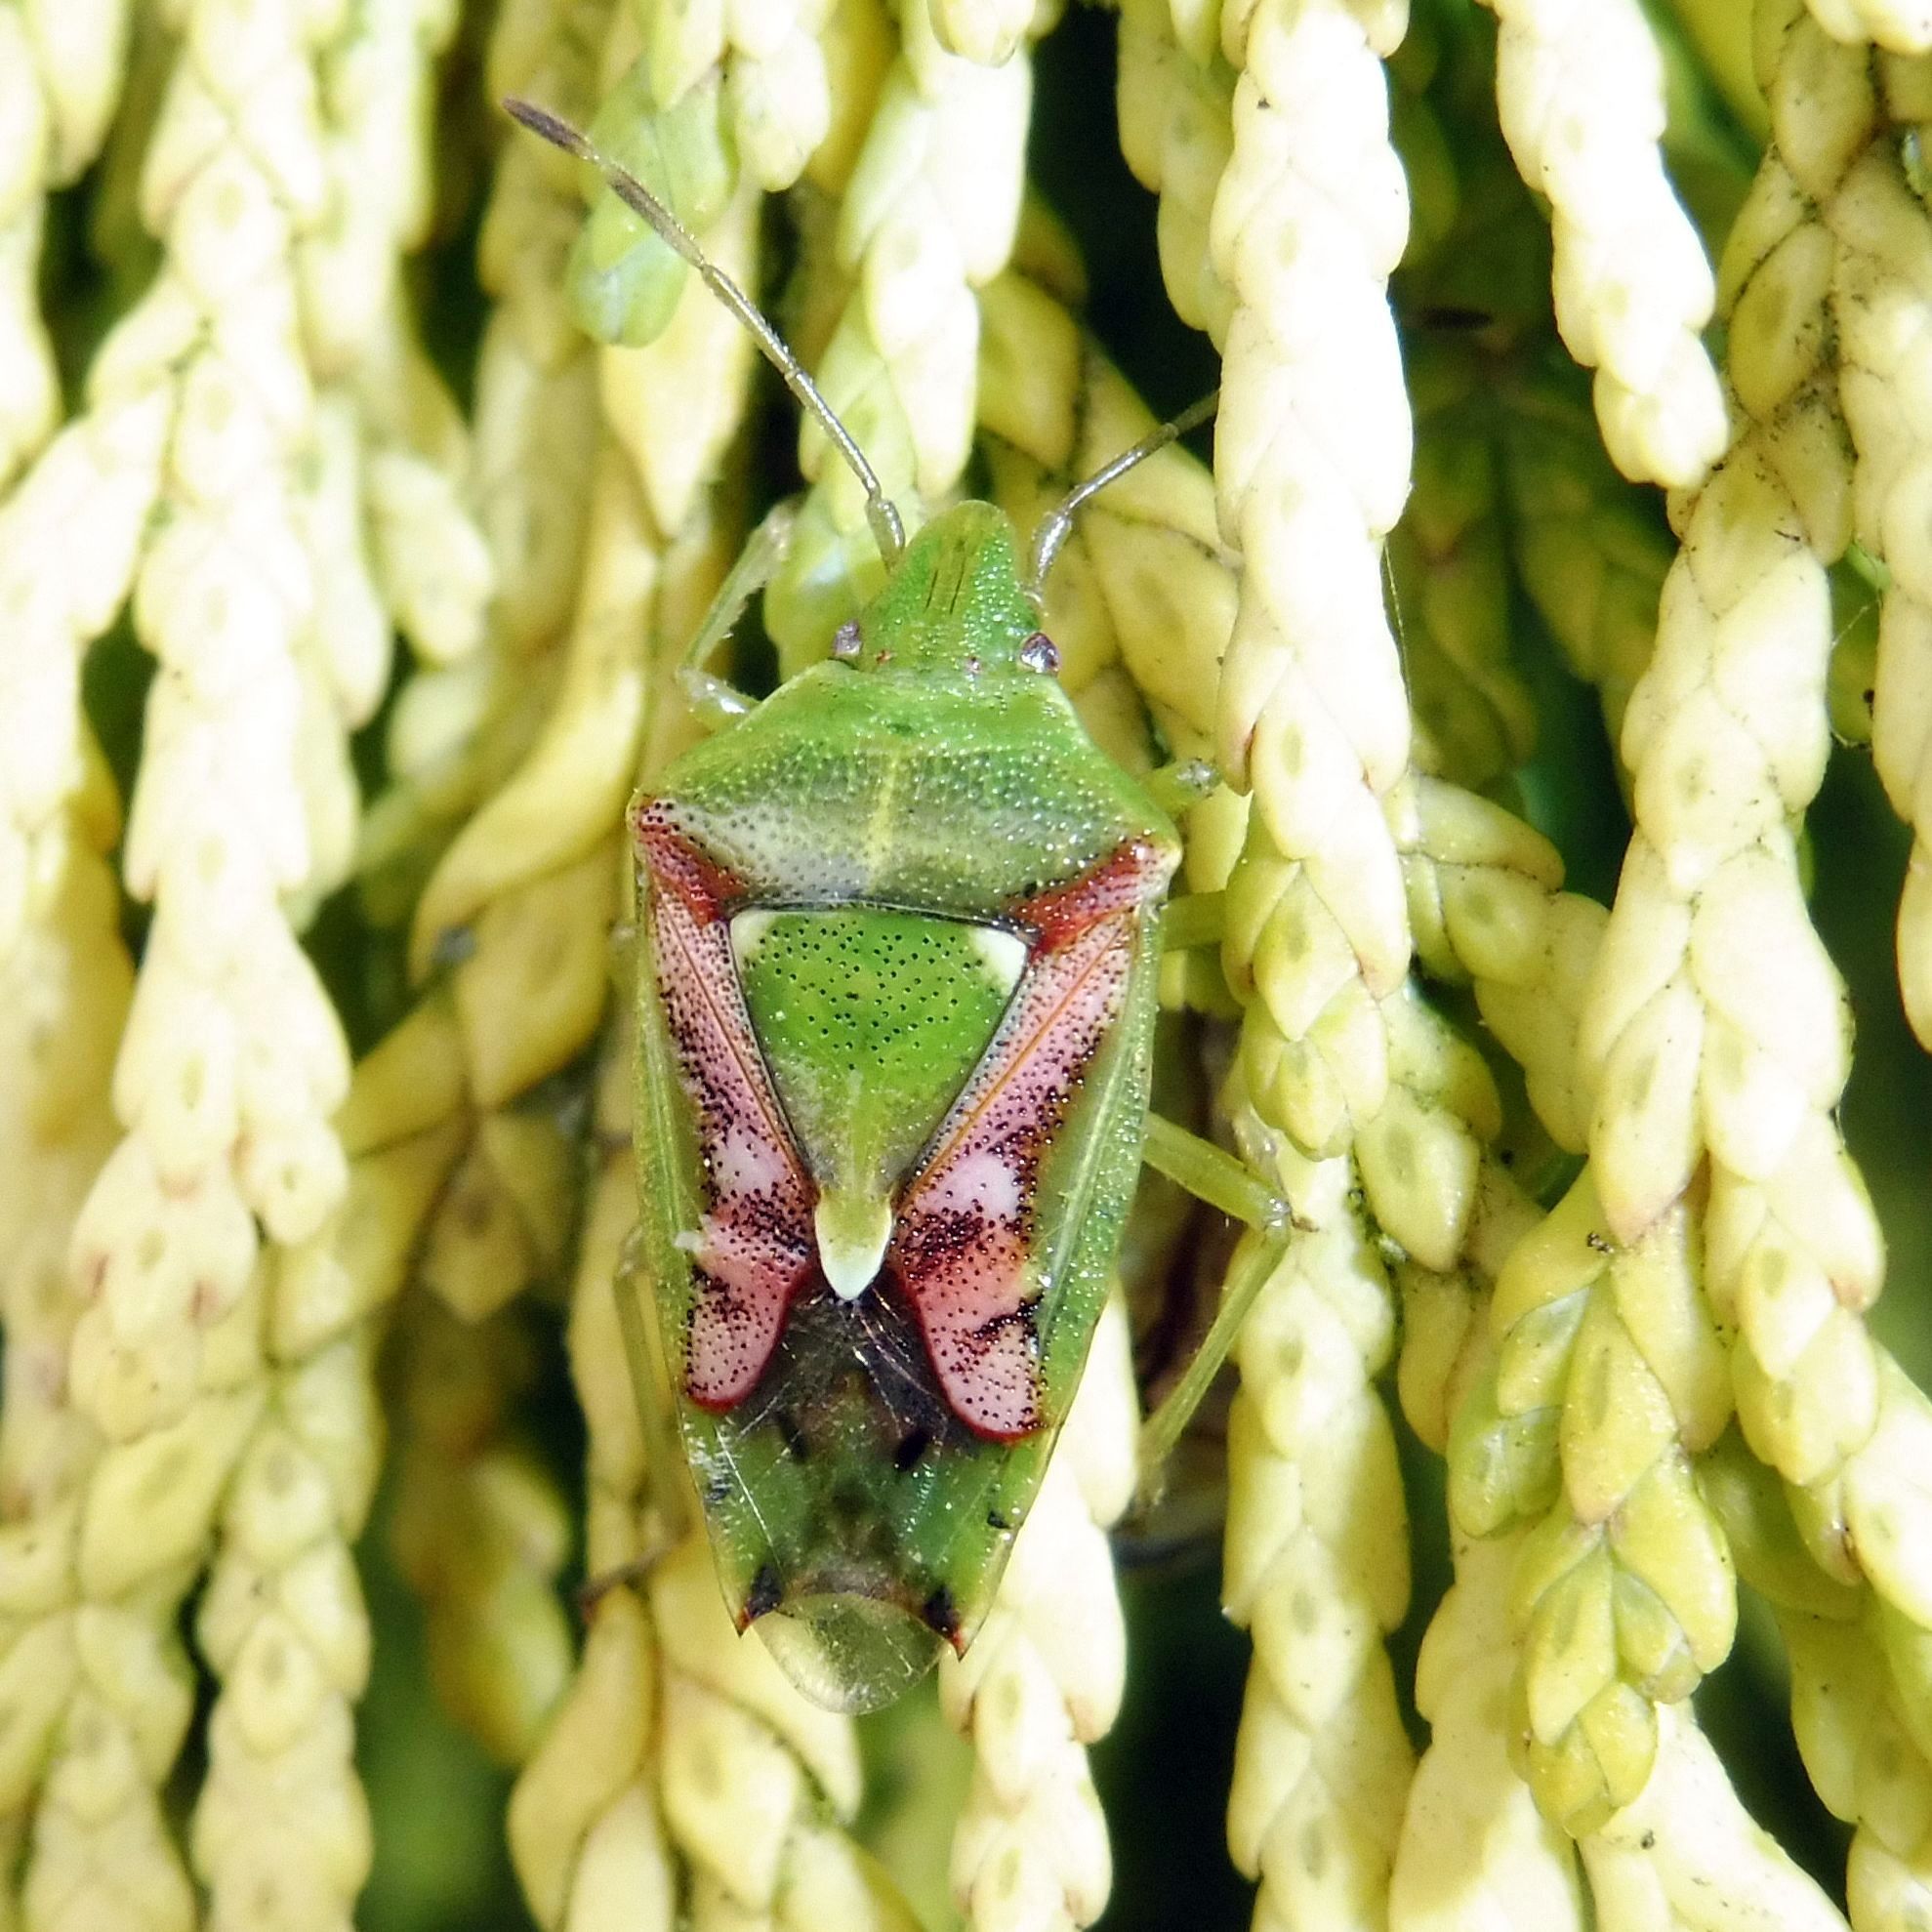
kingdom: Animalia
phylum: Arthropoda
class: Insecta
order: Hemiptera
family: Acanthosomatidae
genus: Cyphostethus
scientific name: Cyphostethus tristriatus
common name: Juniper shieldbug
